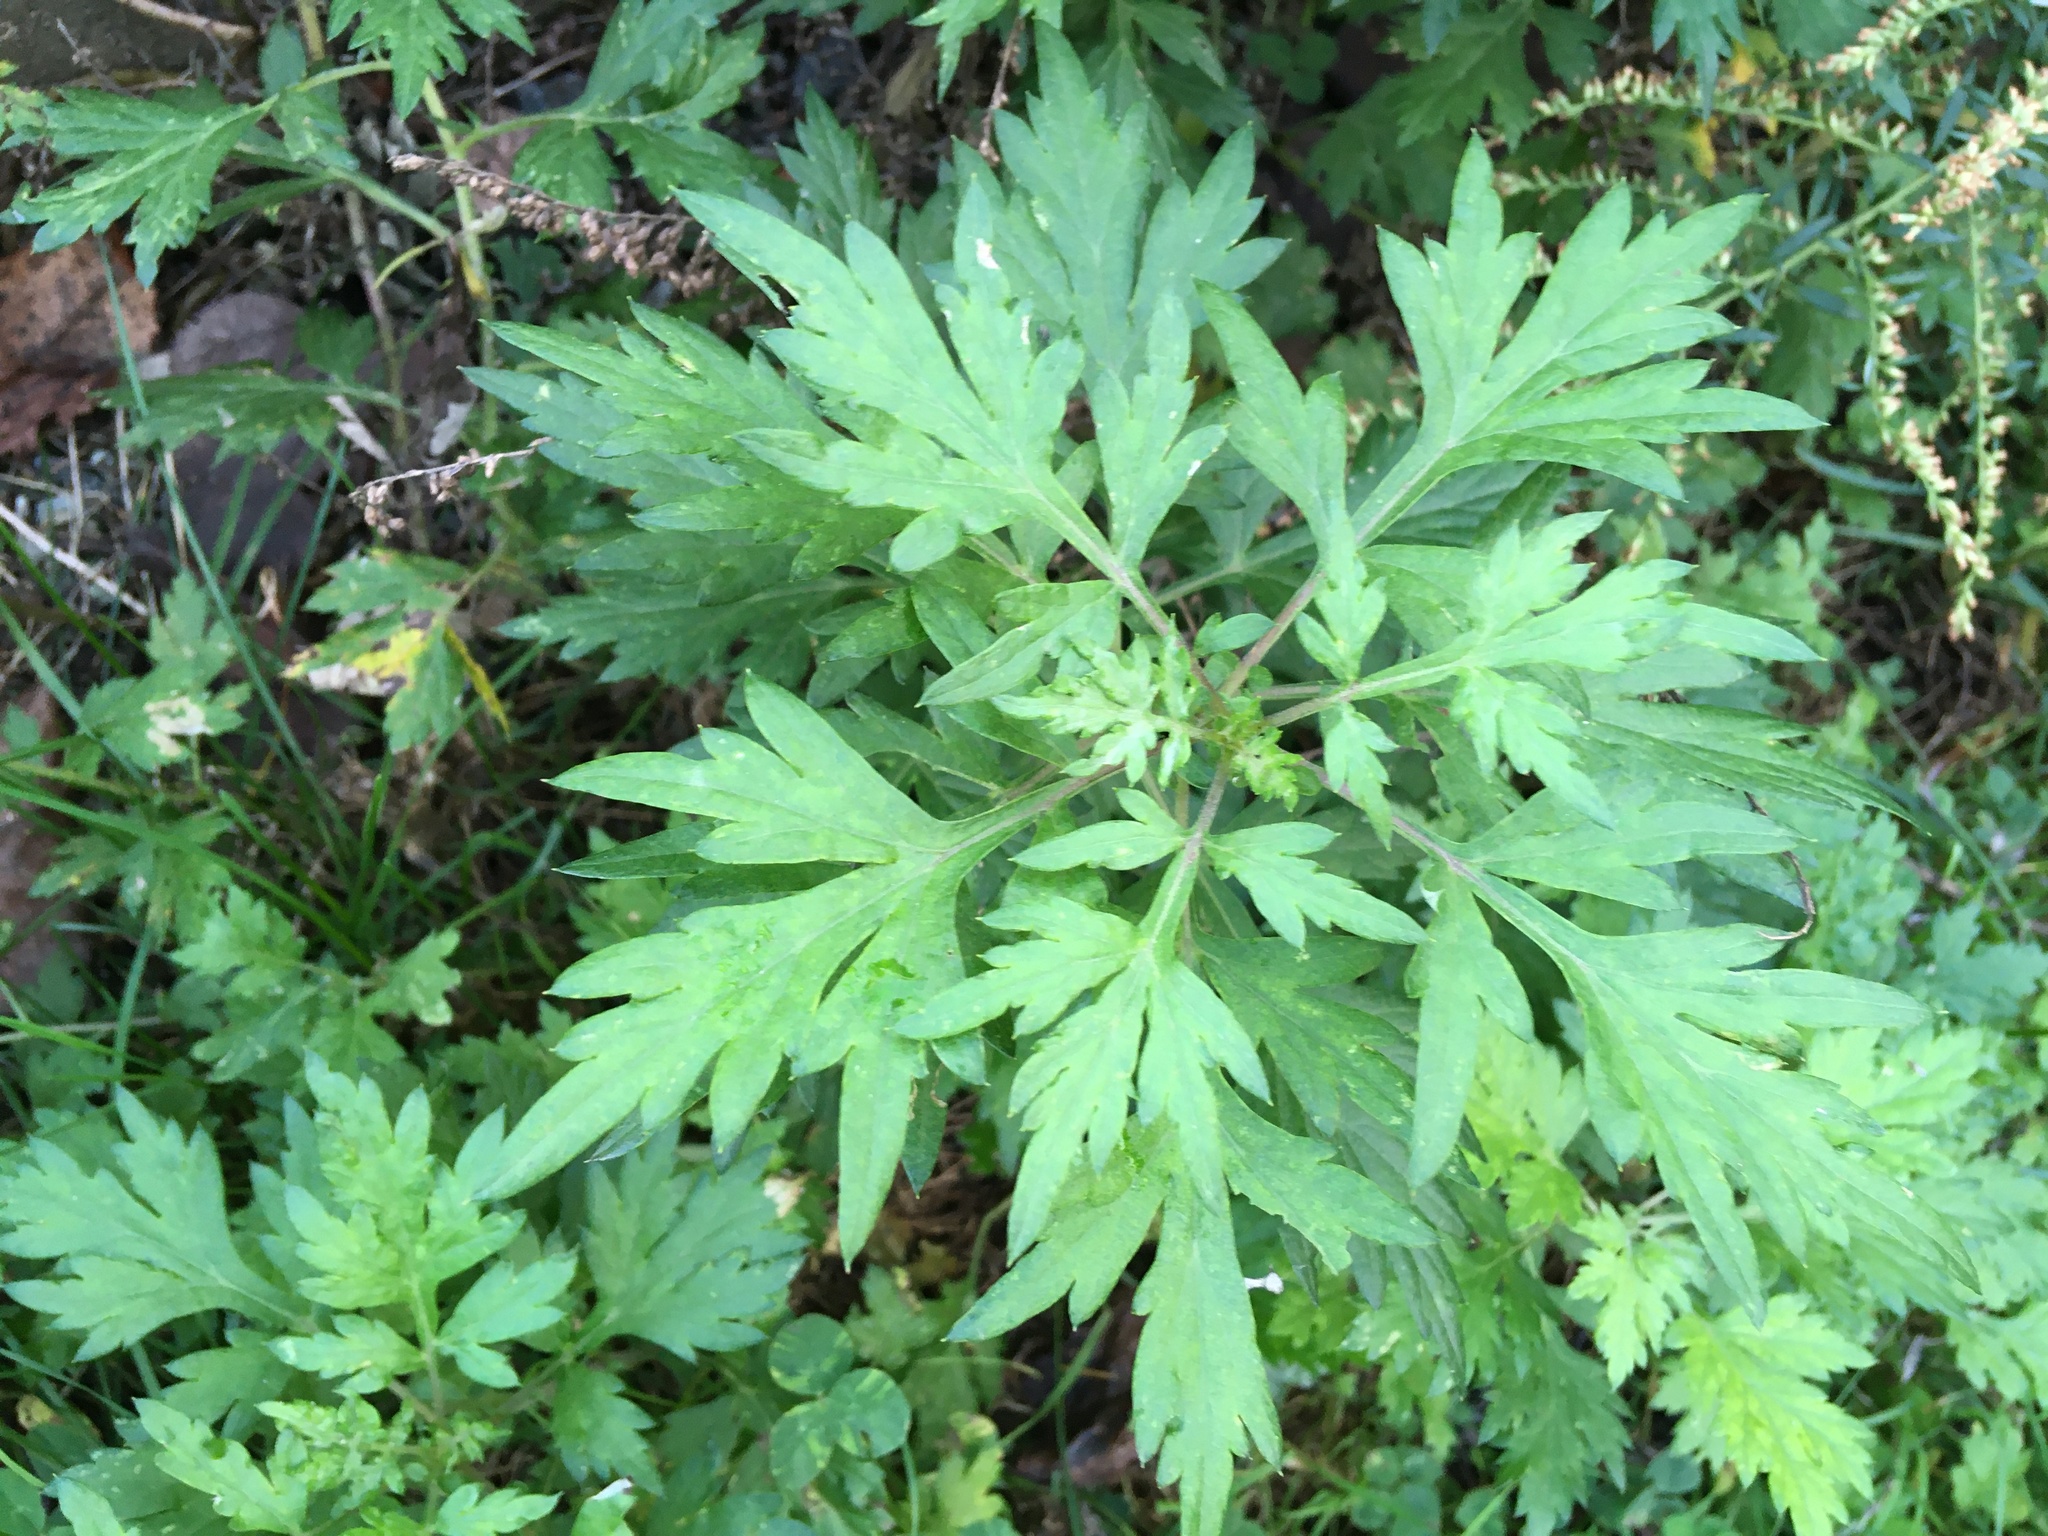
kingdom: Plantae
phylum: Tracheophyta
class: Magnoliopsida
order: Asterales
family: Asteraceae
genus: Artemisia
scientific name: Artemisia vulgaris
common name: Mugwort
